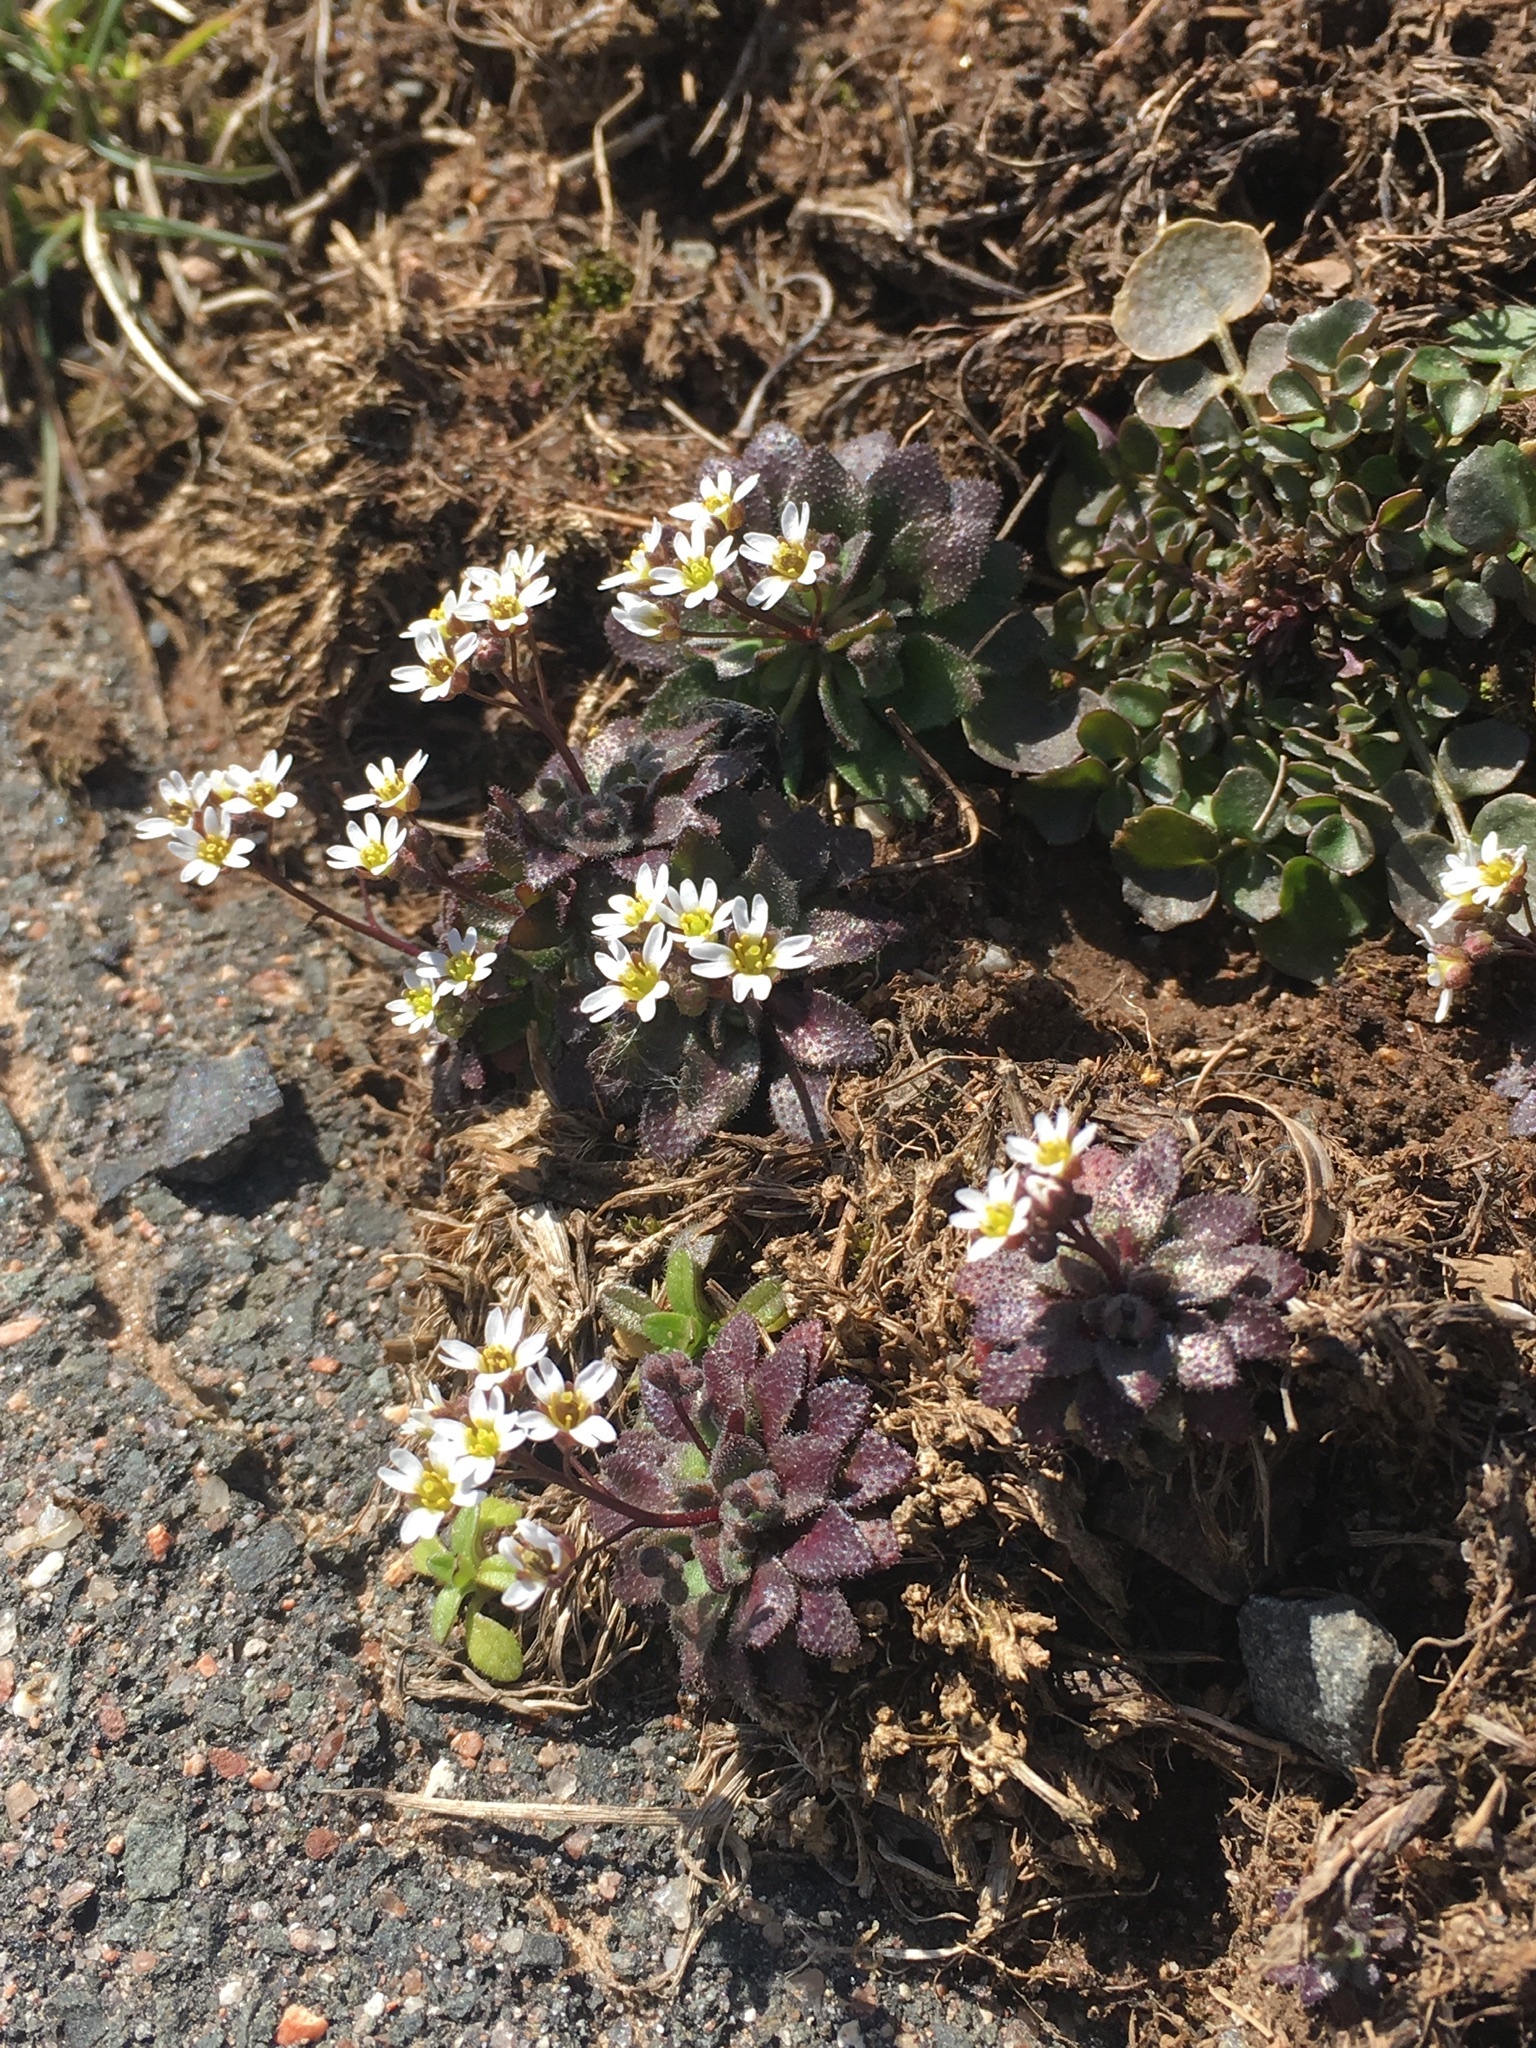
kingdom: Plantae
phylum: Tracheophyta
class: Magnoliopsida
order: Brassicales
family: Brassicaceae
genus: Draba
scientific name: Draba verna
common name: Spring draba
